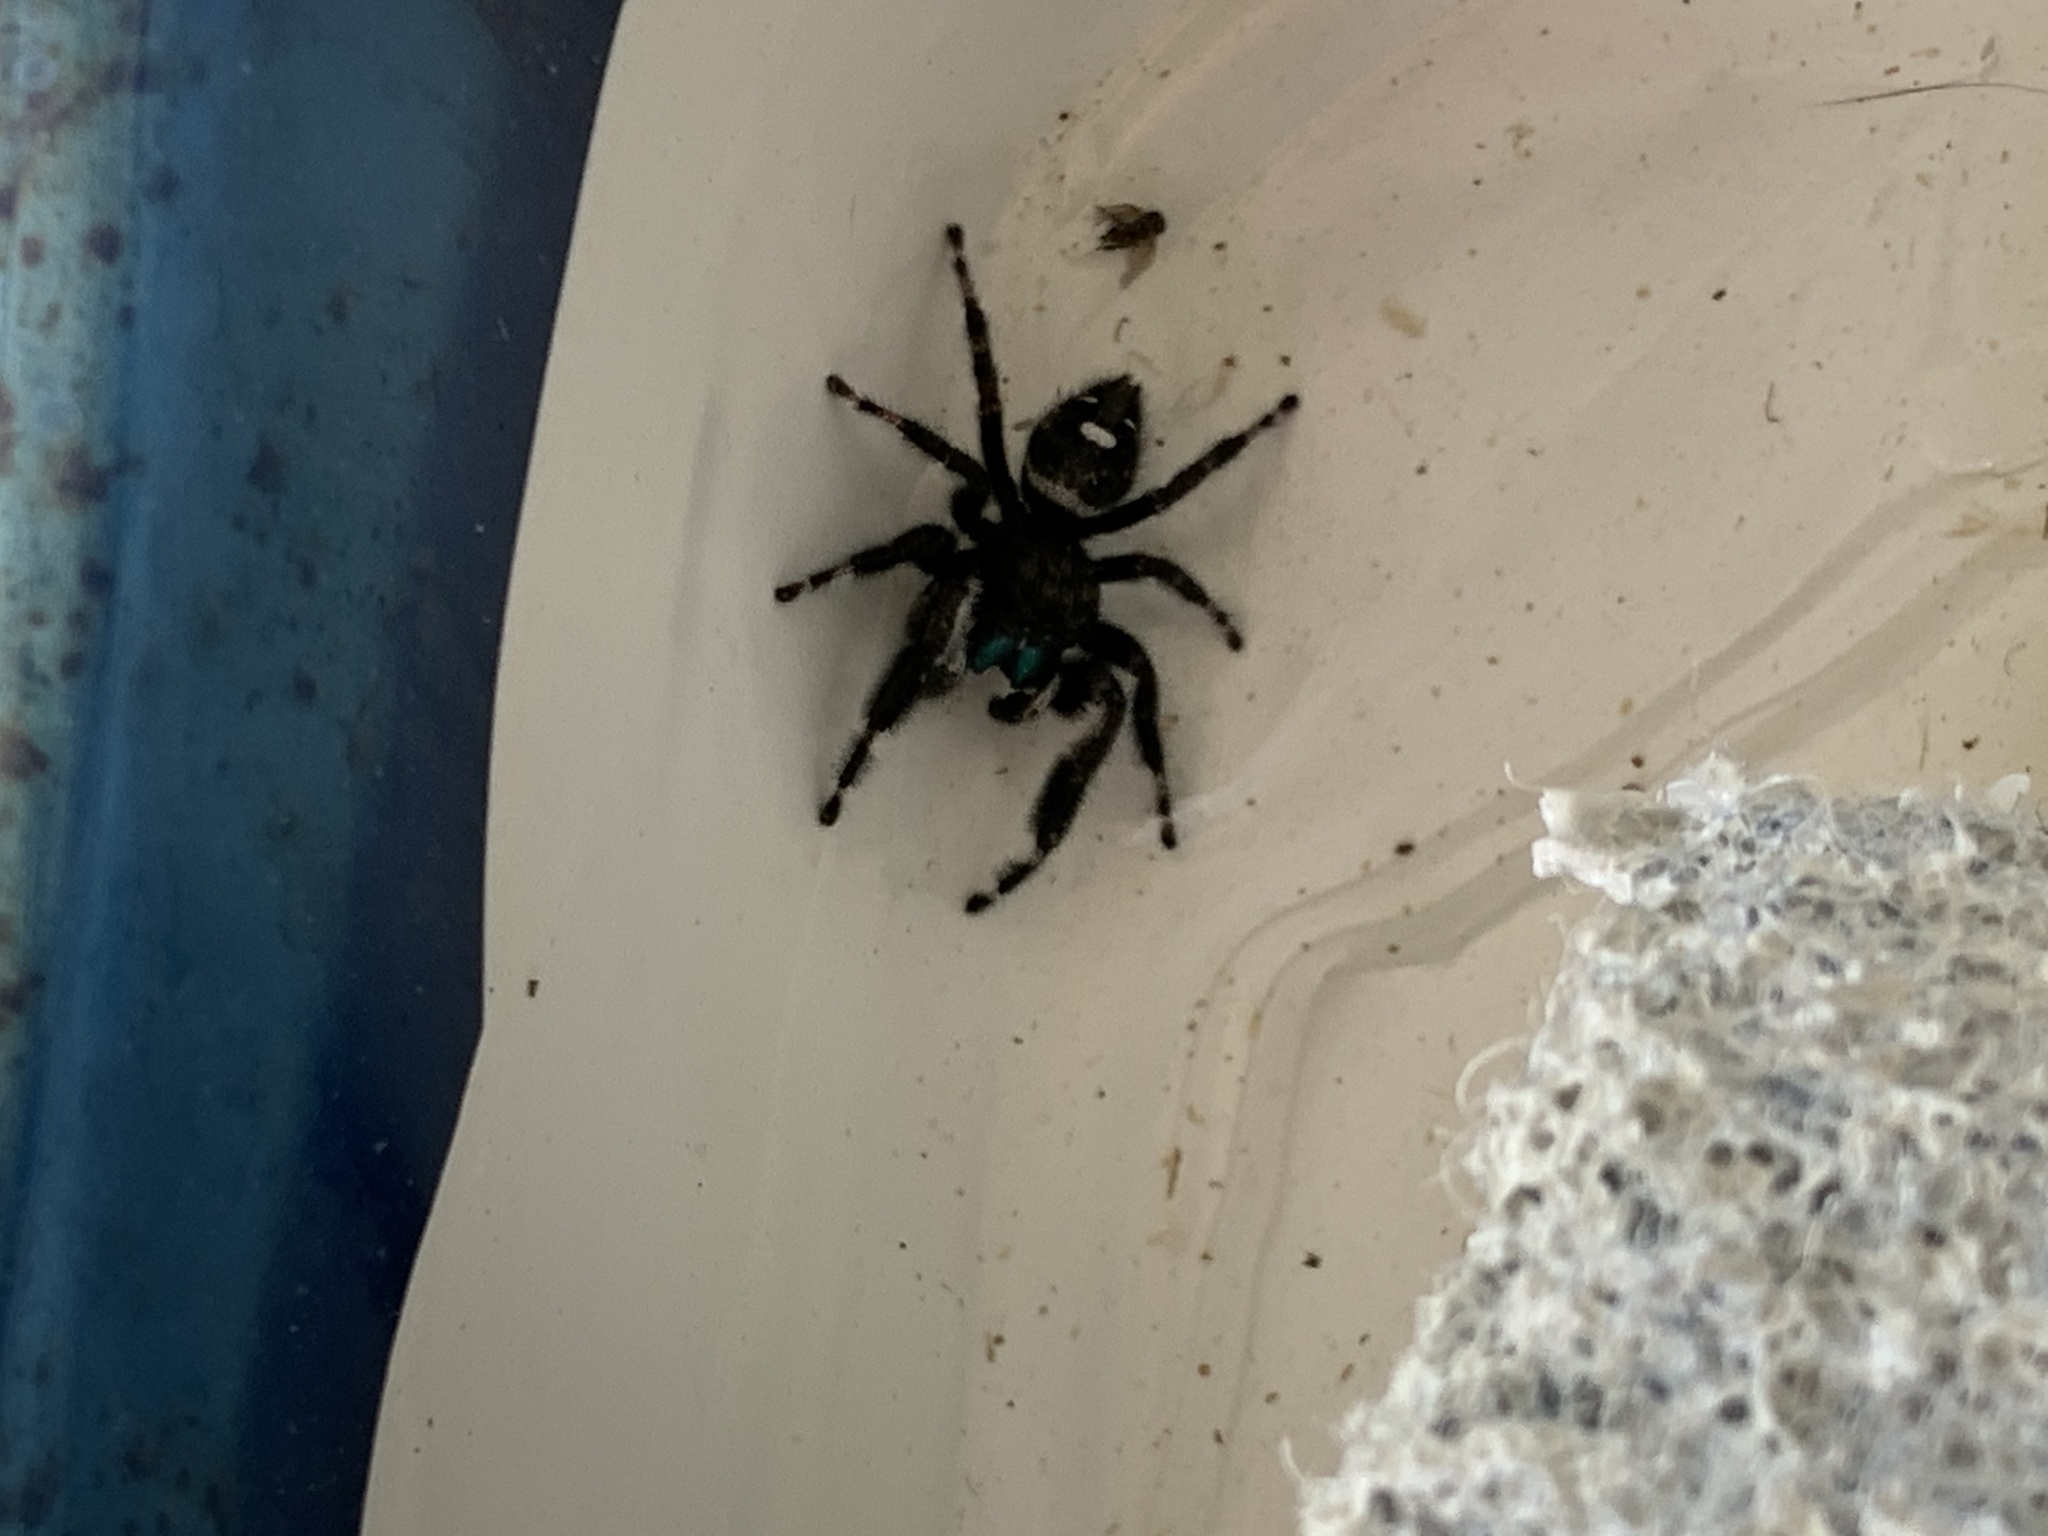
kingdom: Animalia
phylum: Arthropoda
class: Arachnida
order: Araneae
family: Salticidae
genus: Phidippus
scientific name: Phidippus audax
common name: Bold jumper
